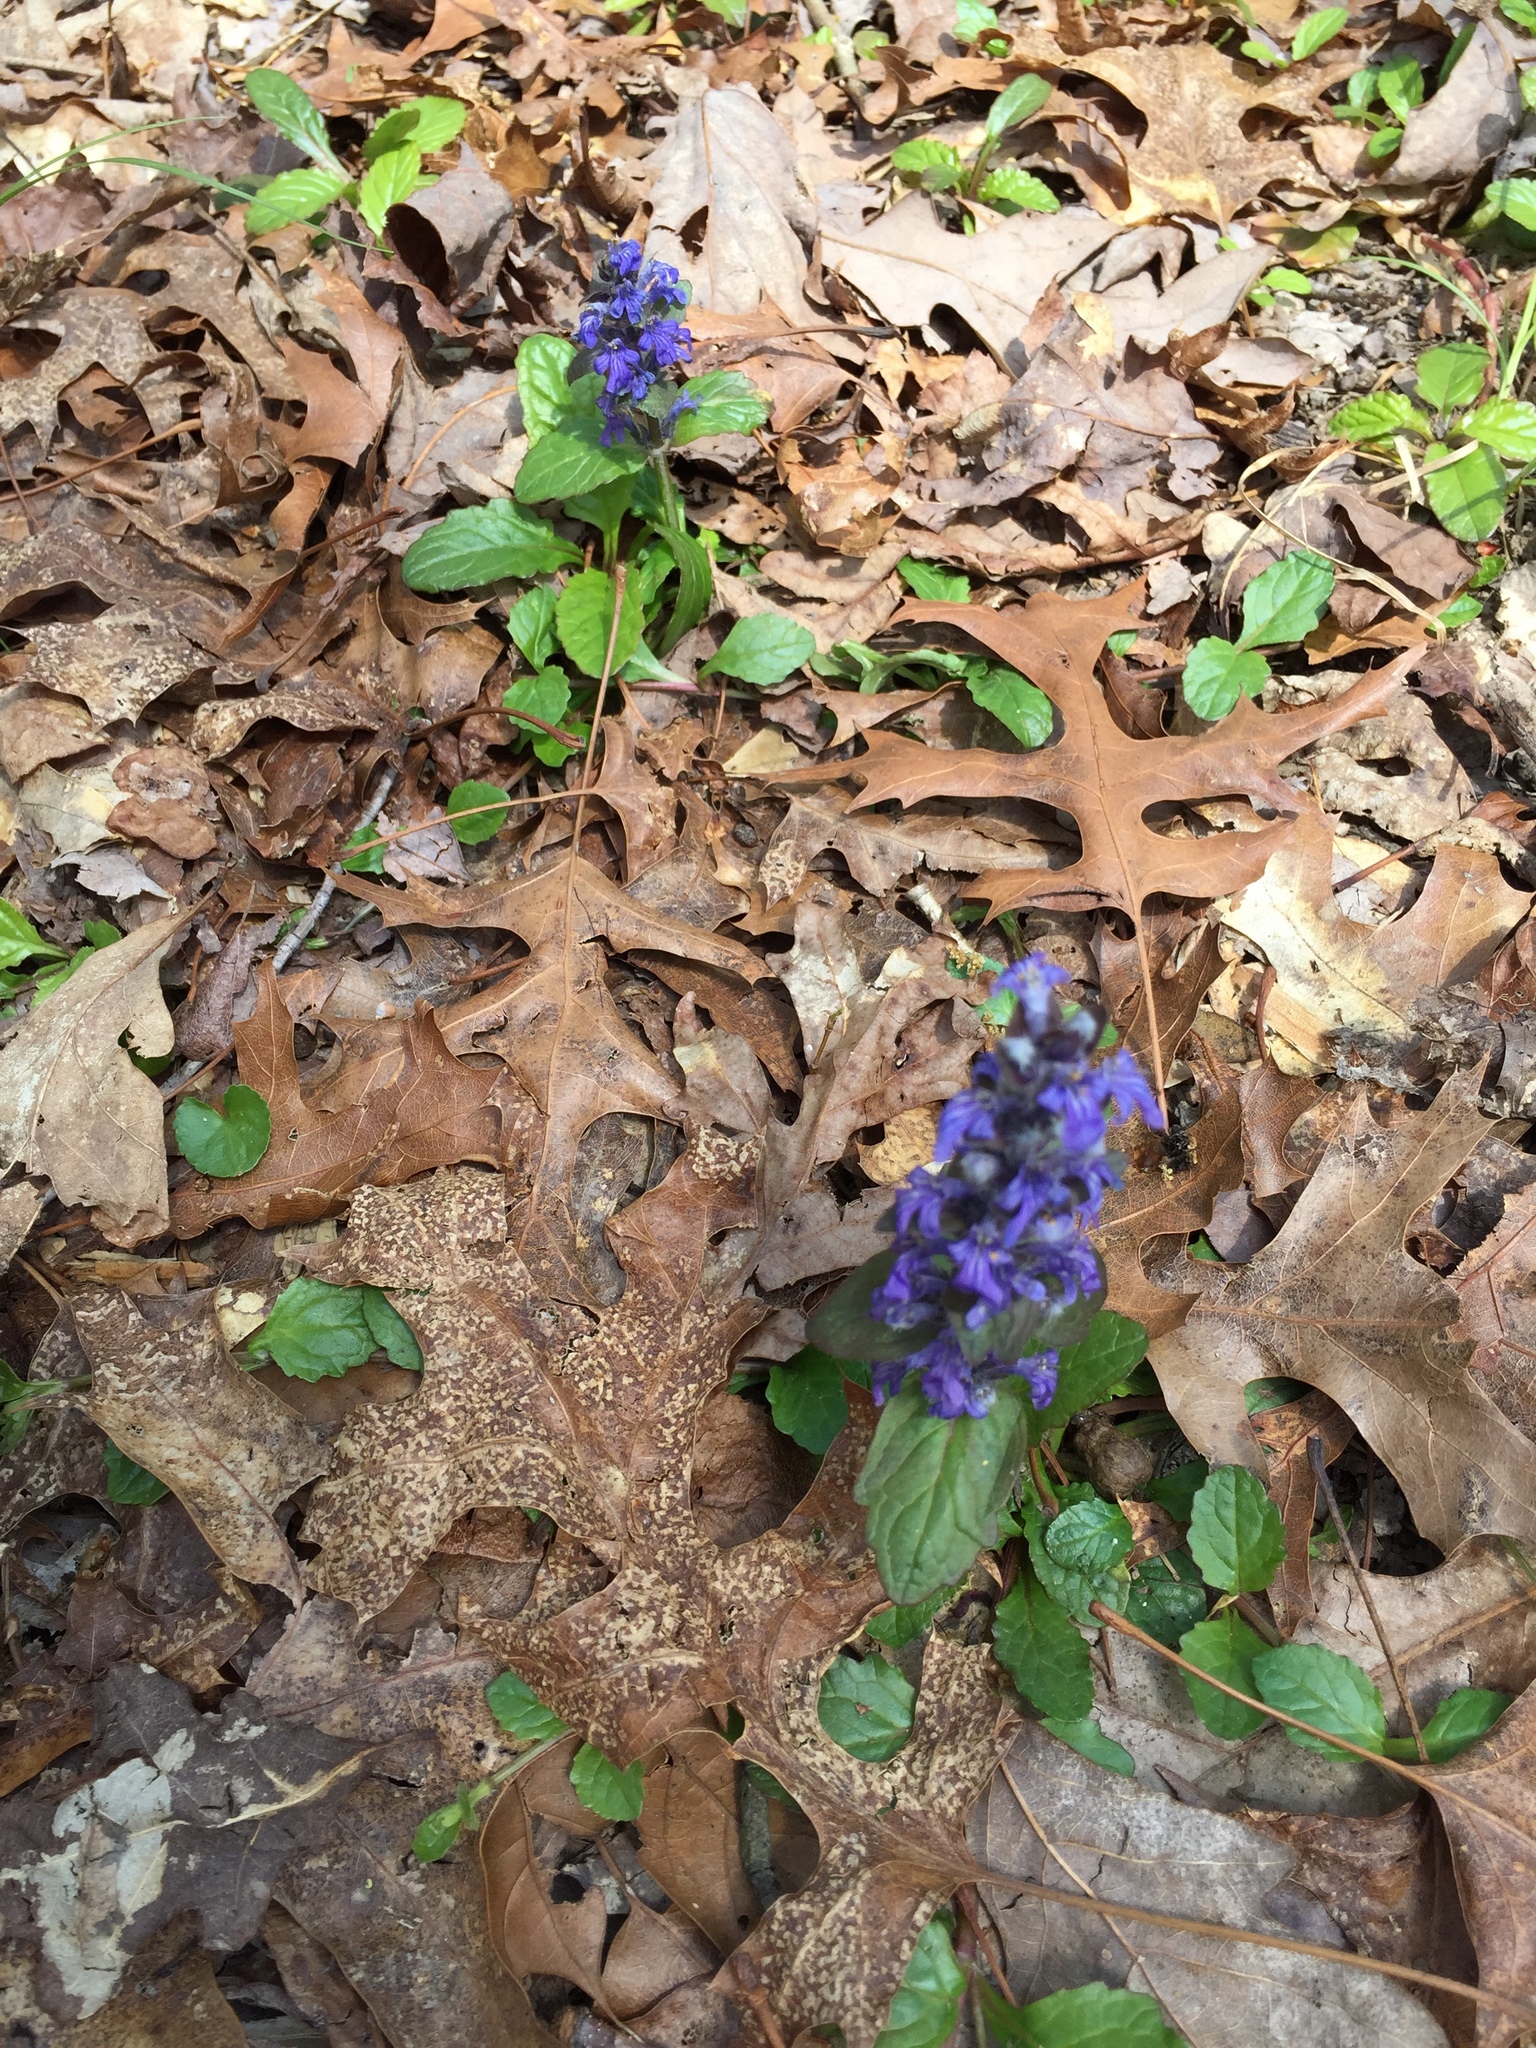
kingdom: Plantae
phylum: Tracheophyta
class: Magnoliopsida
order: Lamiales
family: Lamiaceae
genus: Ajuga
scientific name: Ajuga reptans
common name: Bugle
